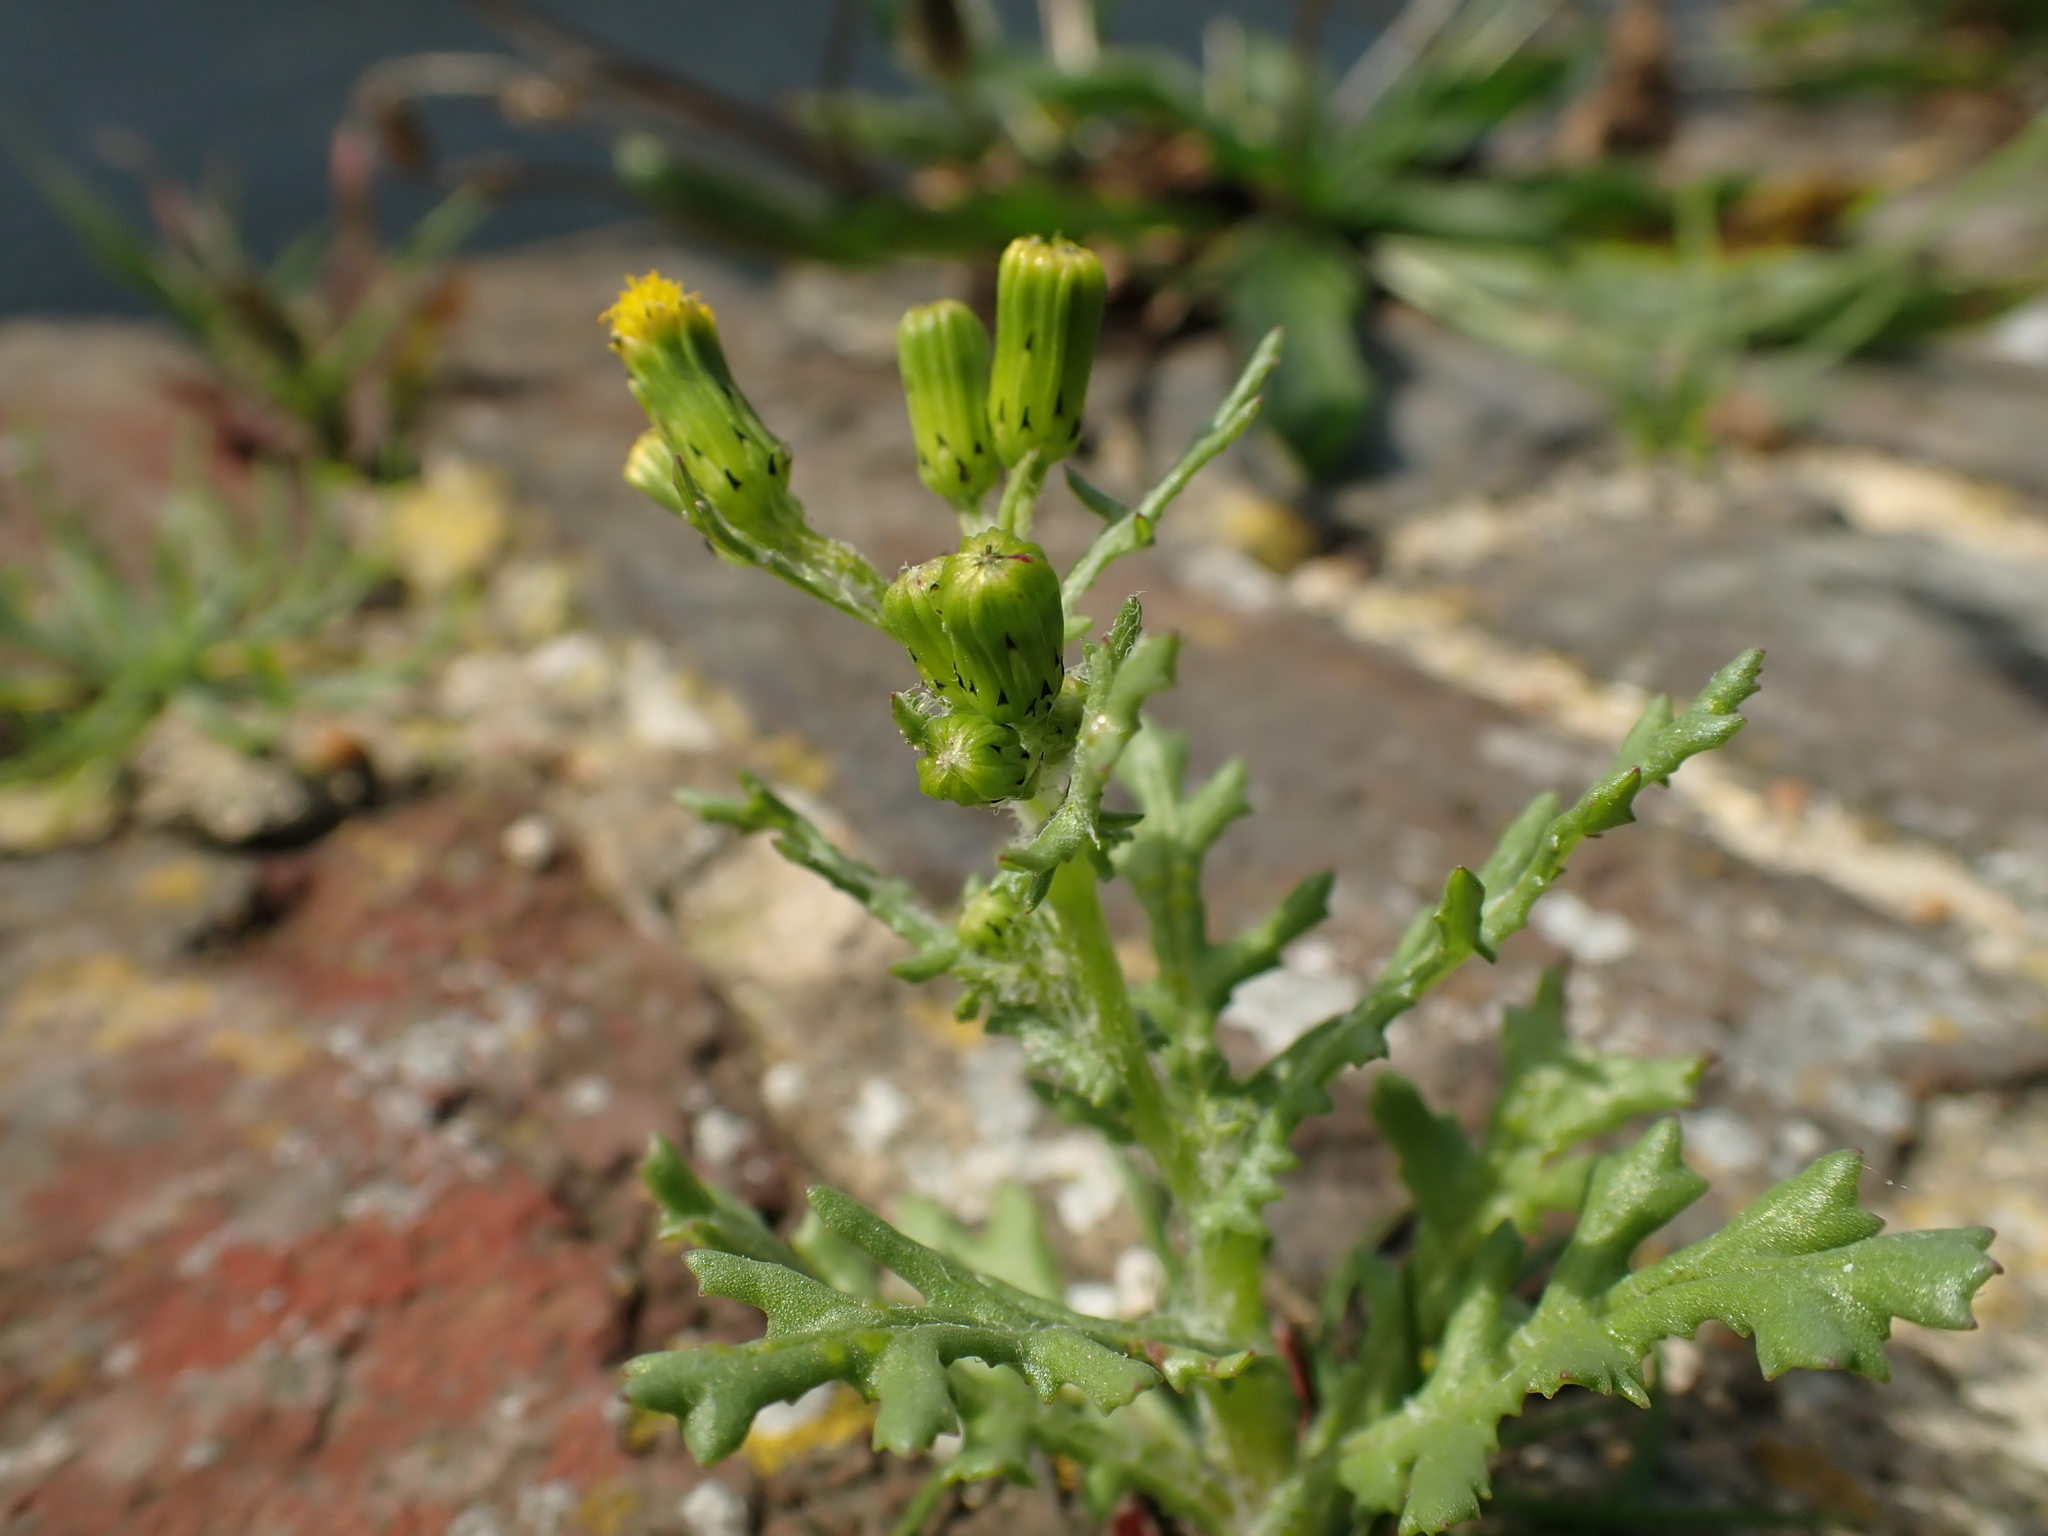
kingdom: Plantae
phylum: Tracheophyta
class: Magnoliopsida
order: Asterales
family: Asteraceae
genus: Senecio
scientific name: Senecio vulgaris
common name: Old-man-in-the-spring
